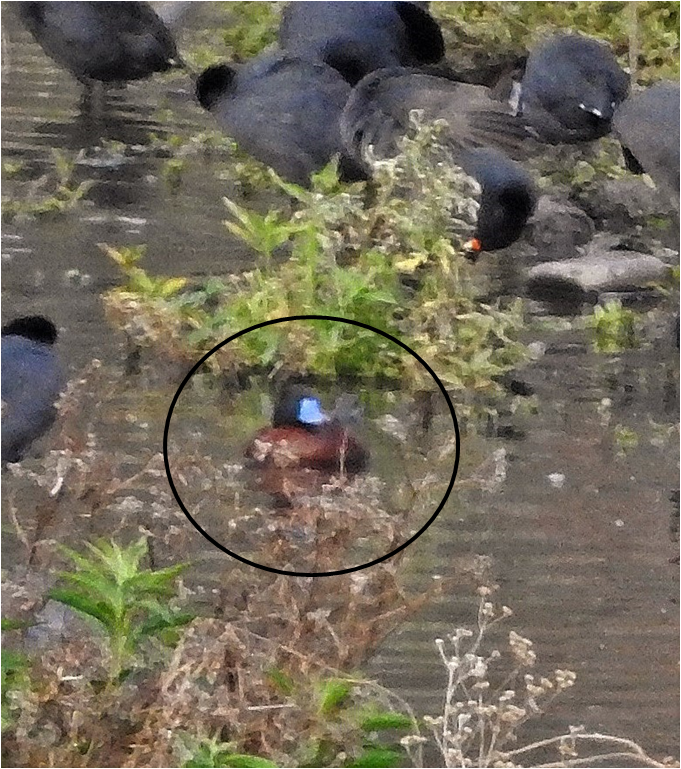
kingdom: Animalia
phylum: Chordata
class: Aves
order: Anseriformes
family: Anatidae
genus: Oxyura
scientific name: Oxyura vittata
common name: Lake duck
